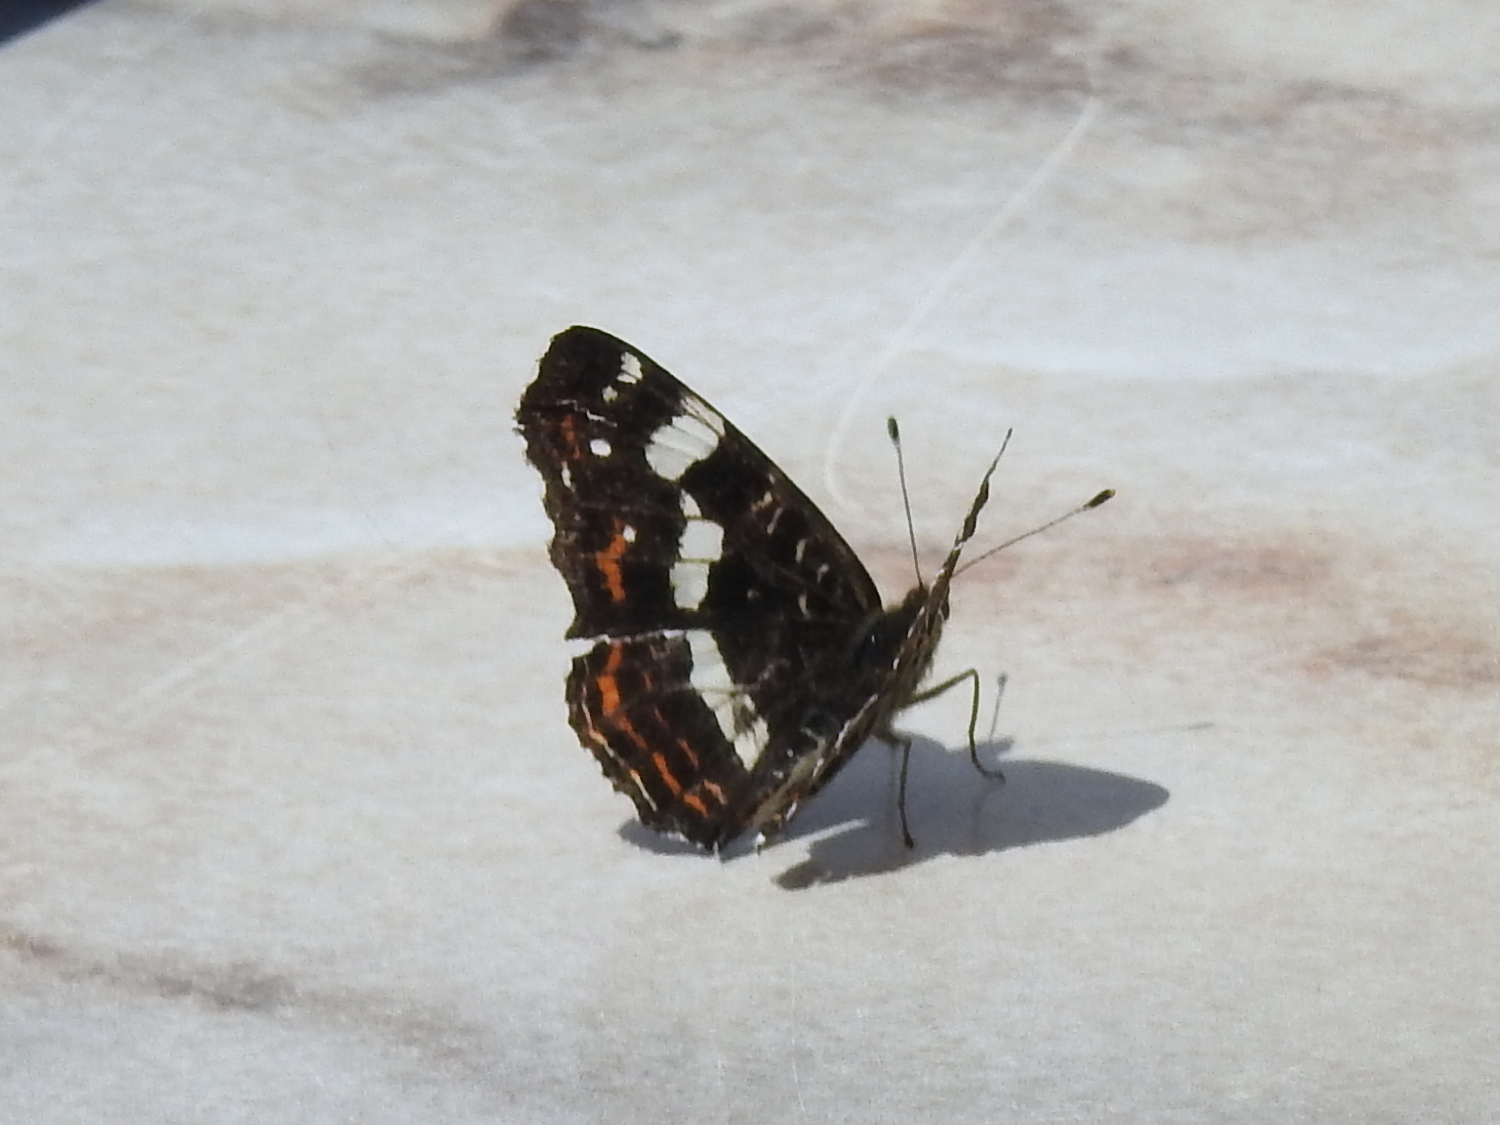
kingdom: Animalia
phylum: Arthropoda
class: Insecta
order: Lepidoptera
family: Nymphalidae
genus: Araschnia
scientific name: Araschnia levana
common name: Map butterfly
